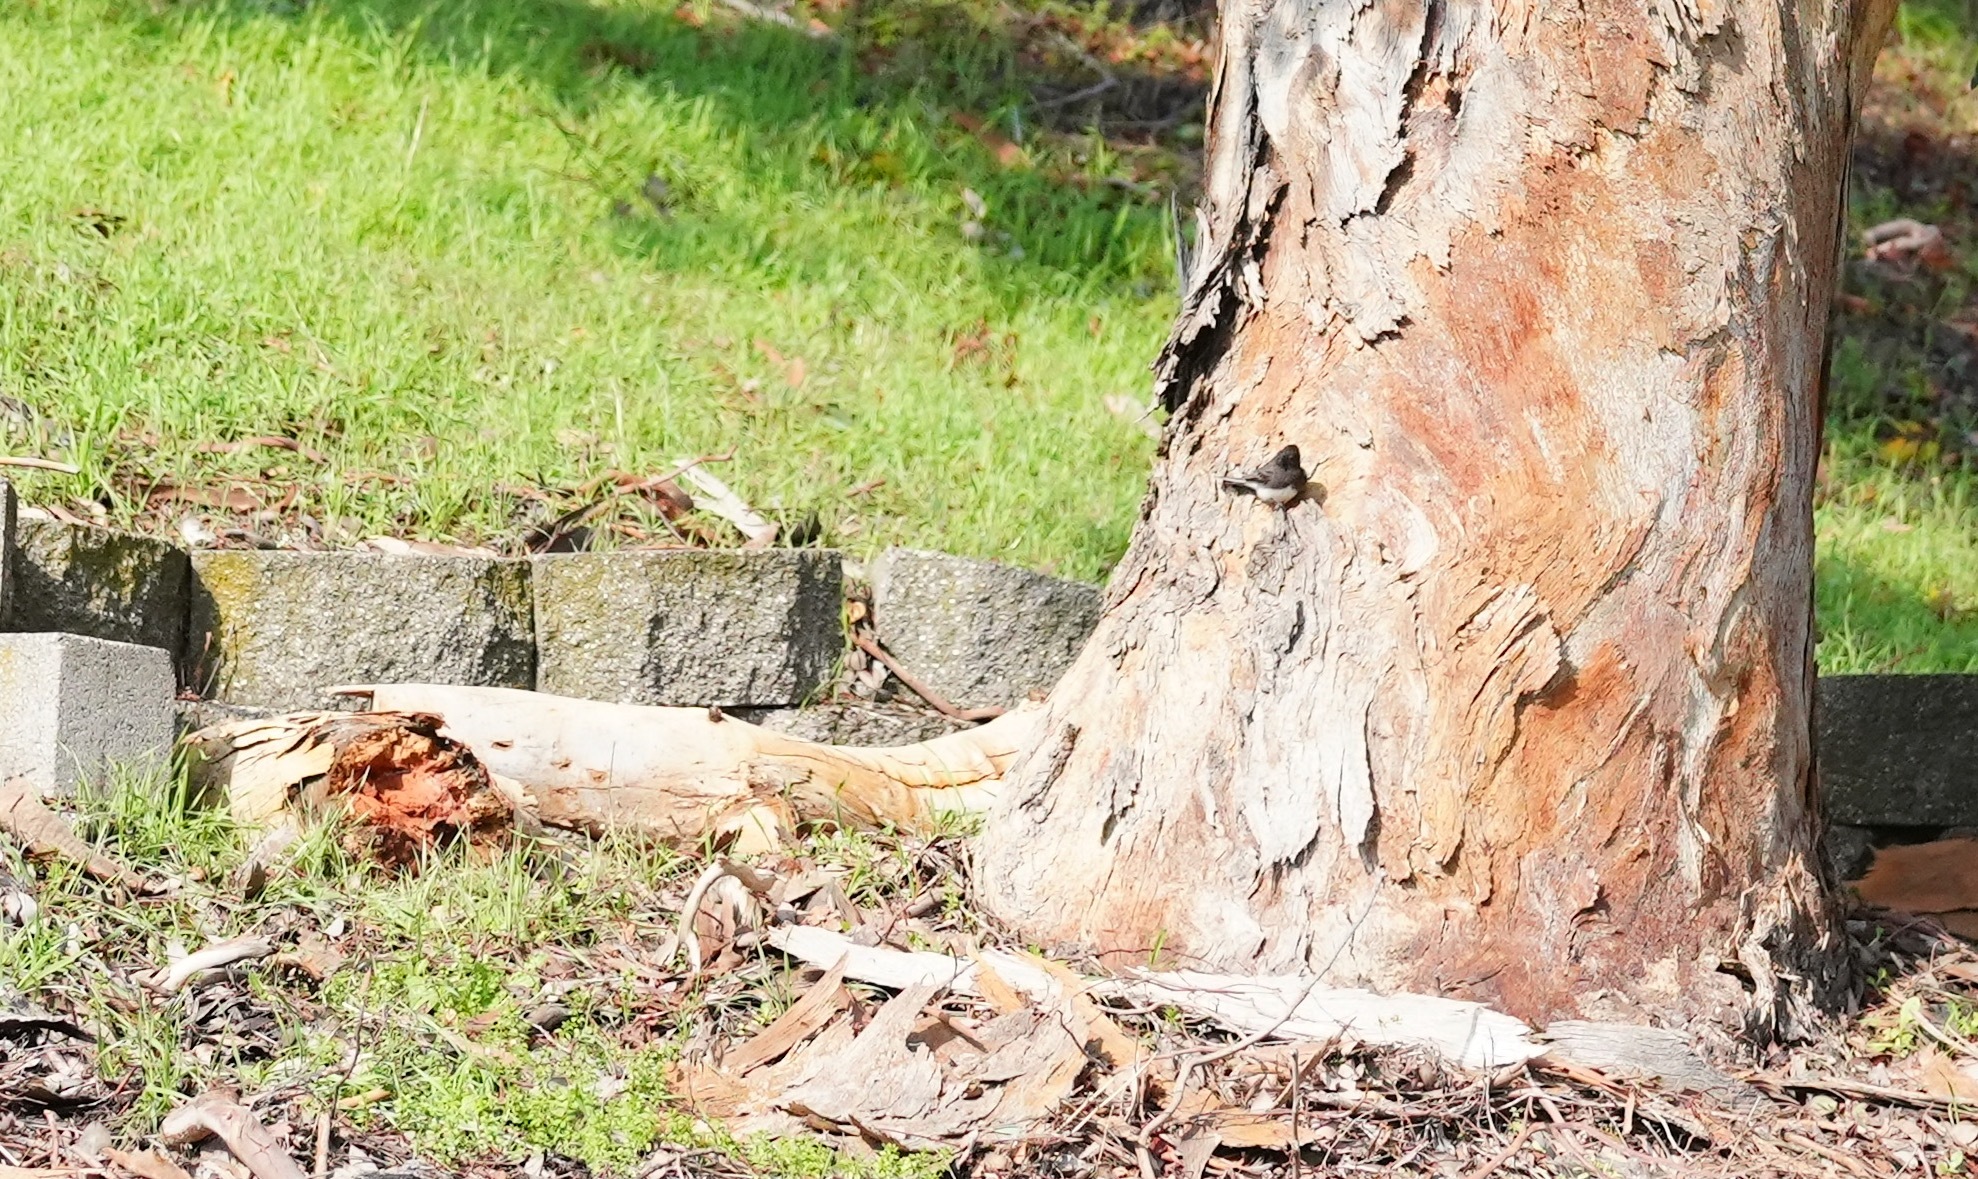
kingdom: Animalia
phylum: Chordata
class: Aves
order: Passeriformes
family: Tyrannidae
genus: Sayornis
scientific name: Sayornis nigricans
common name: Black phoebe
